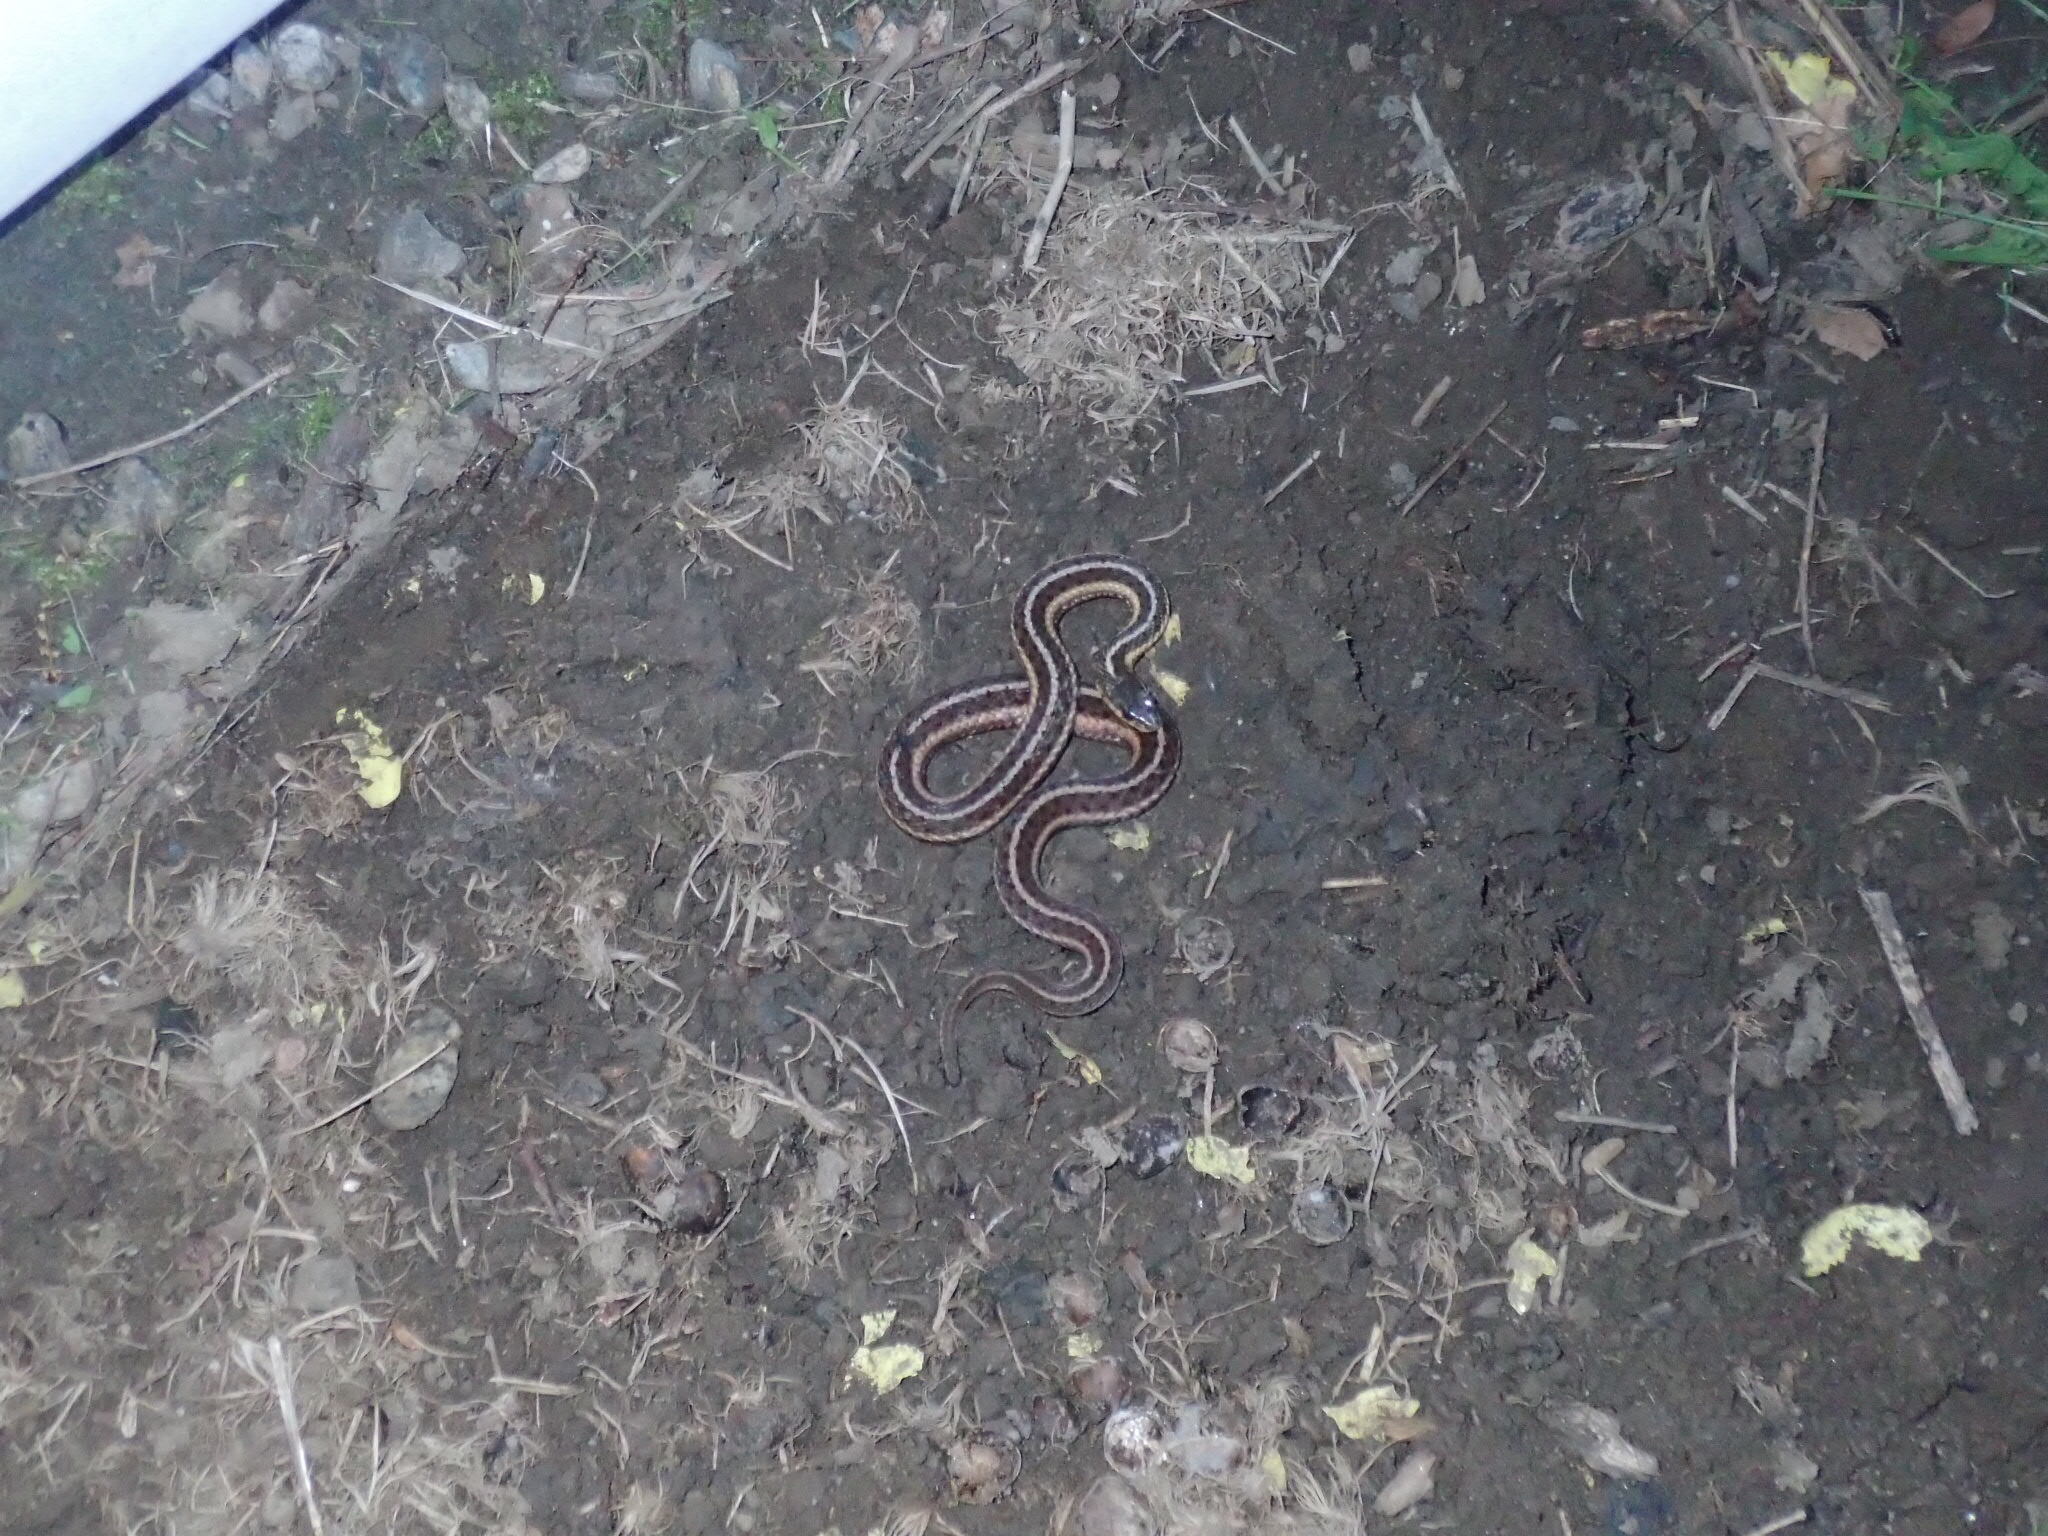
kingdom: Animalia
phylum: Chordata
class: Squamata
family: Colubridae
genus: Thamnophis
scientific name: Thamnophis sirtalis
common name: Common garter snake
